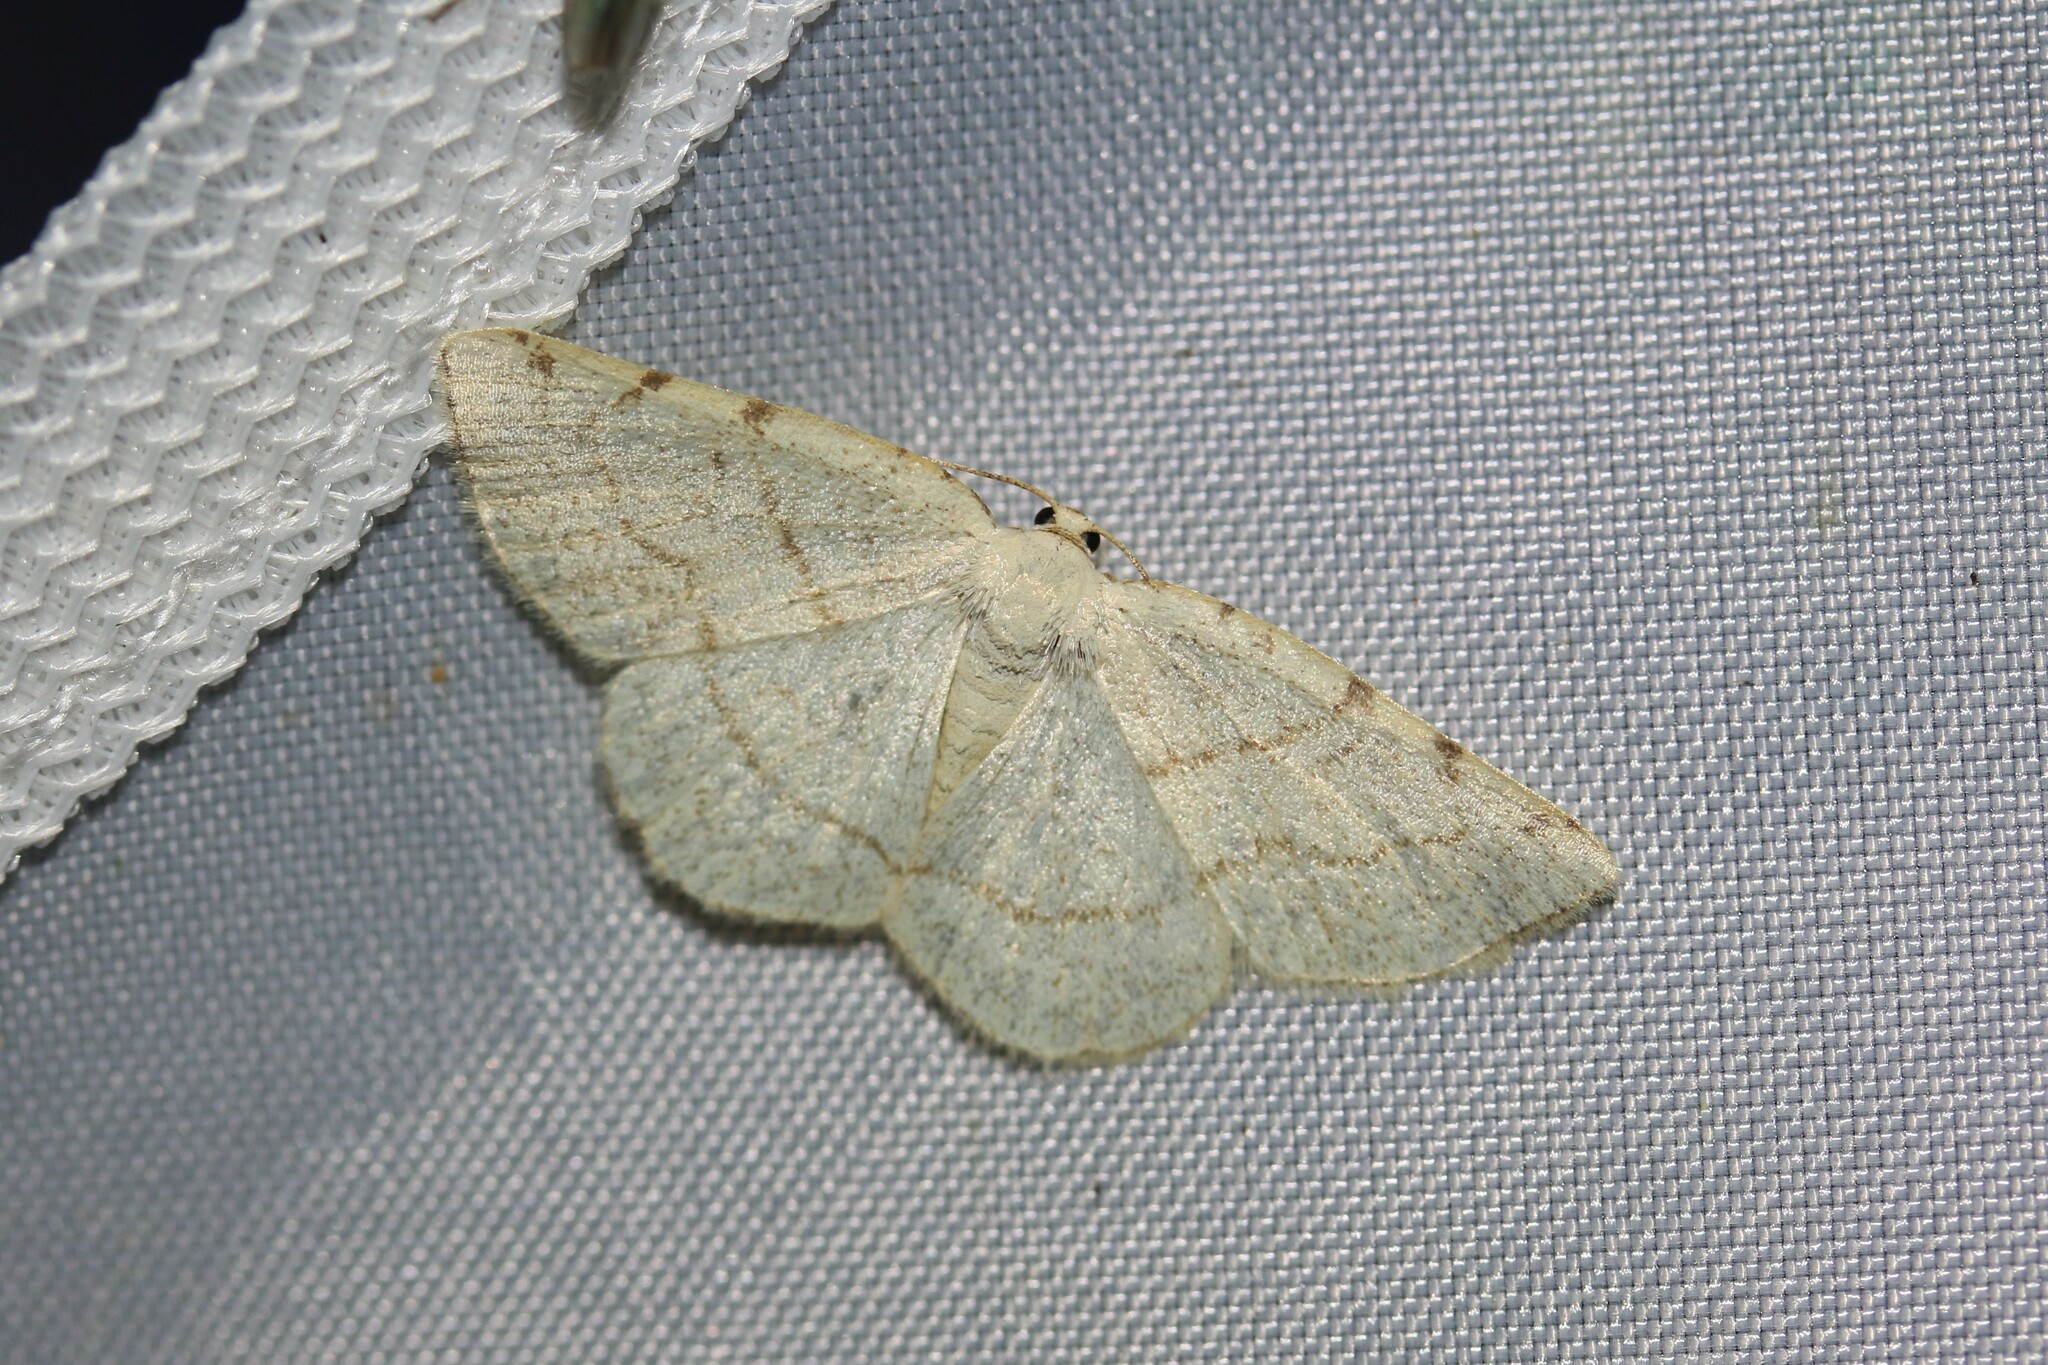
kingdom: Animalia
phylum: Arthropoda
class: Insecta
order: Lepidoptera
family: Geometridae
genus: Stegania
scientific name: Stegania trimaculata
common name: Dorset cream wave
